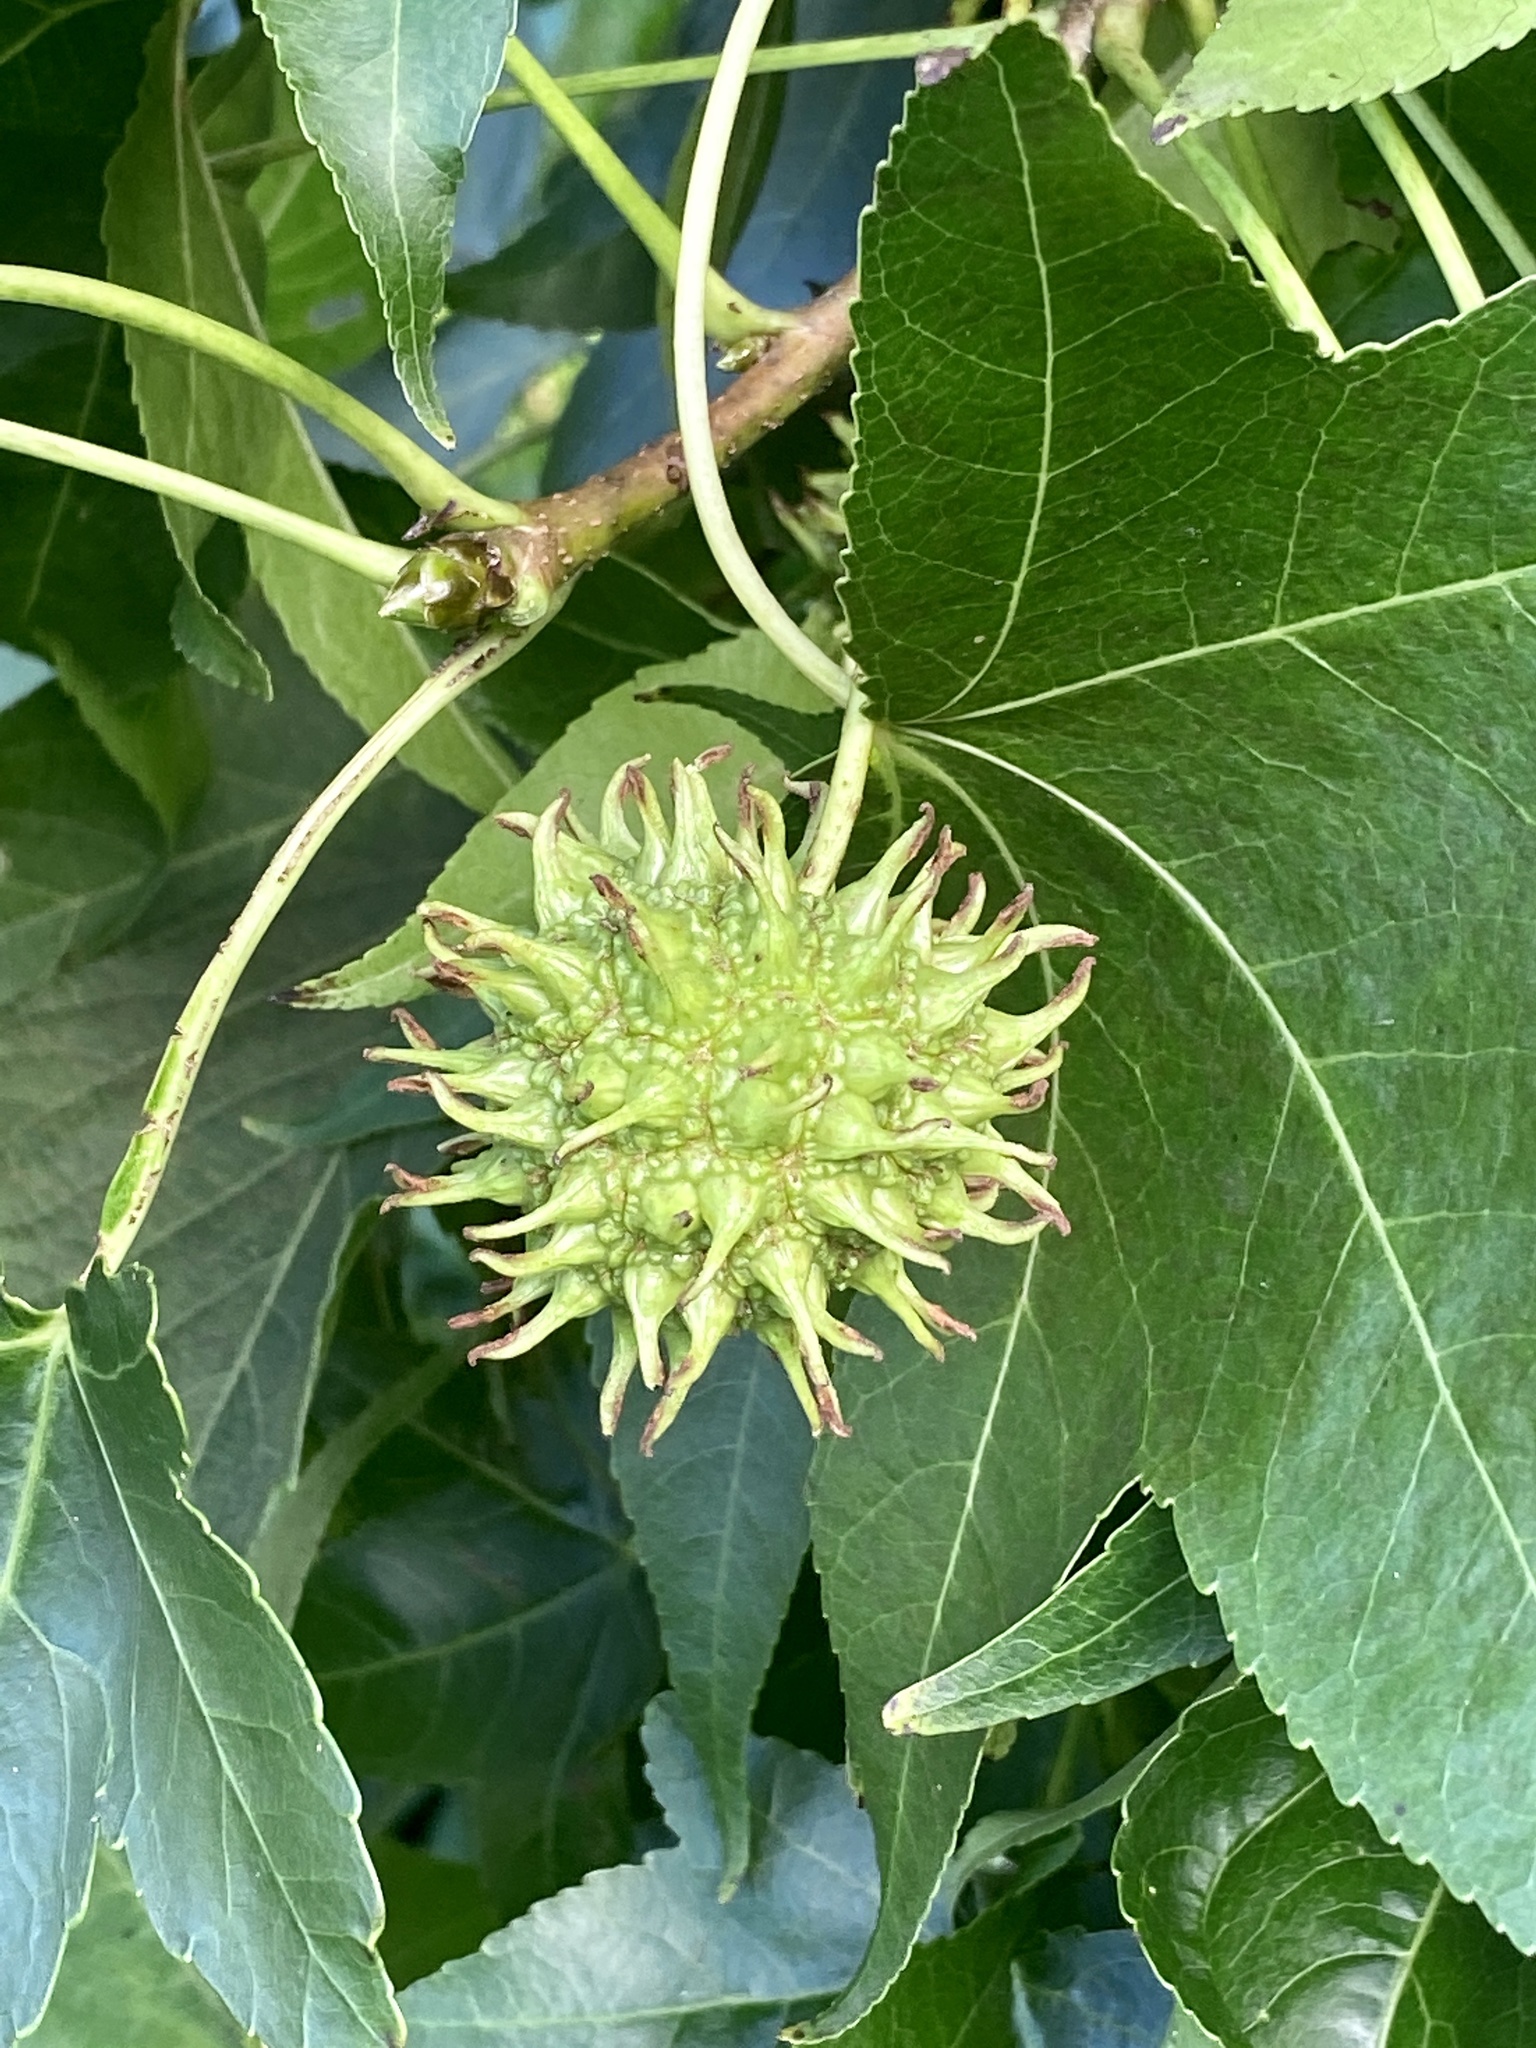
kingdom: Plantae
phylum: Tracheophyta
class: Magnoliopsida
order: Saxifragales
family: Altingiaceae
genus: Liquidambar
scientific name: Liquidambar styraciflua
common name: Sweet gum
